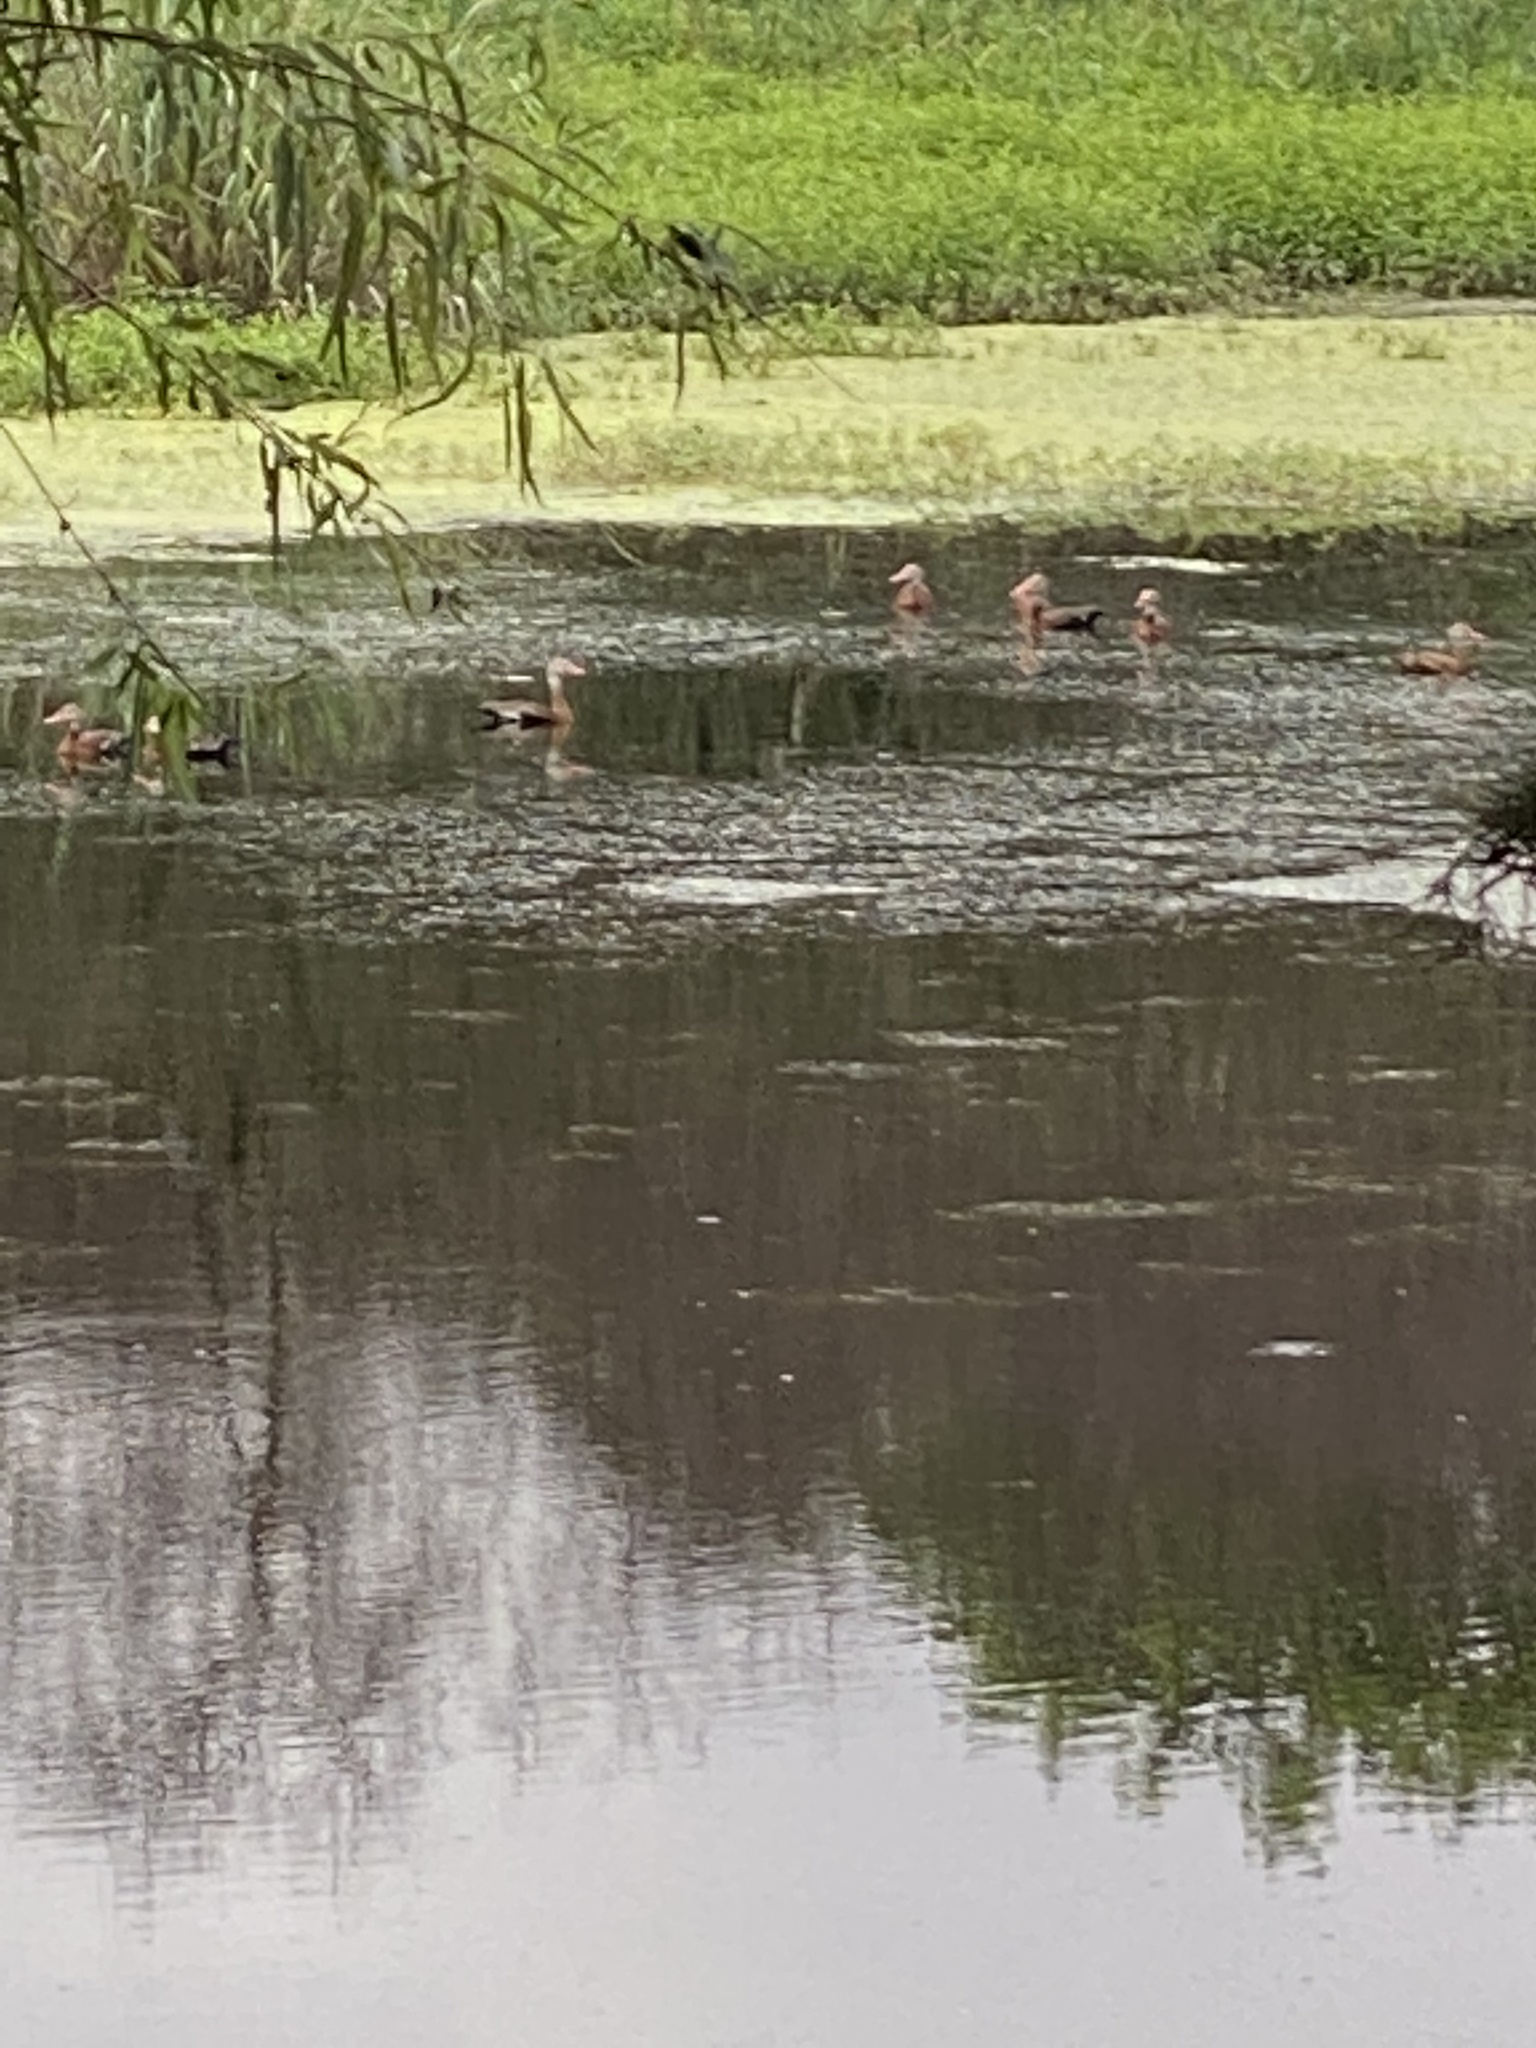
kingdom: Animalia
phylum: Chordata
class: Aves
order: Anseriformes
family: Anatidae
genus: Dendrocygna
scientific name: Dendrocygna autumnalis
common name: Black-bellied whistling duck
